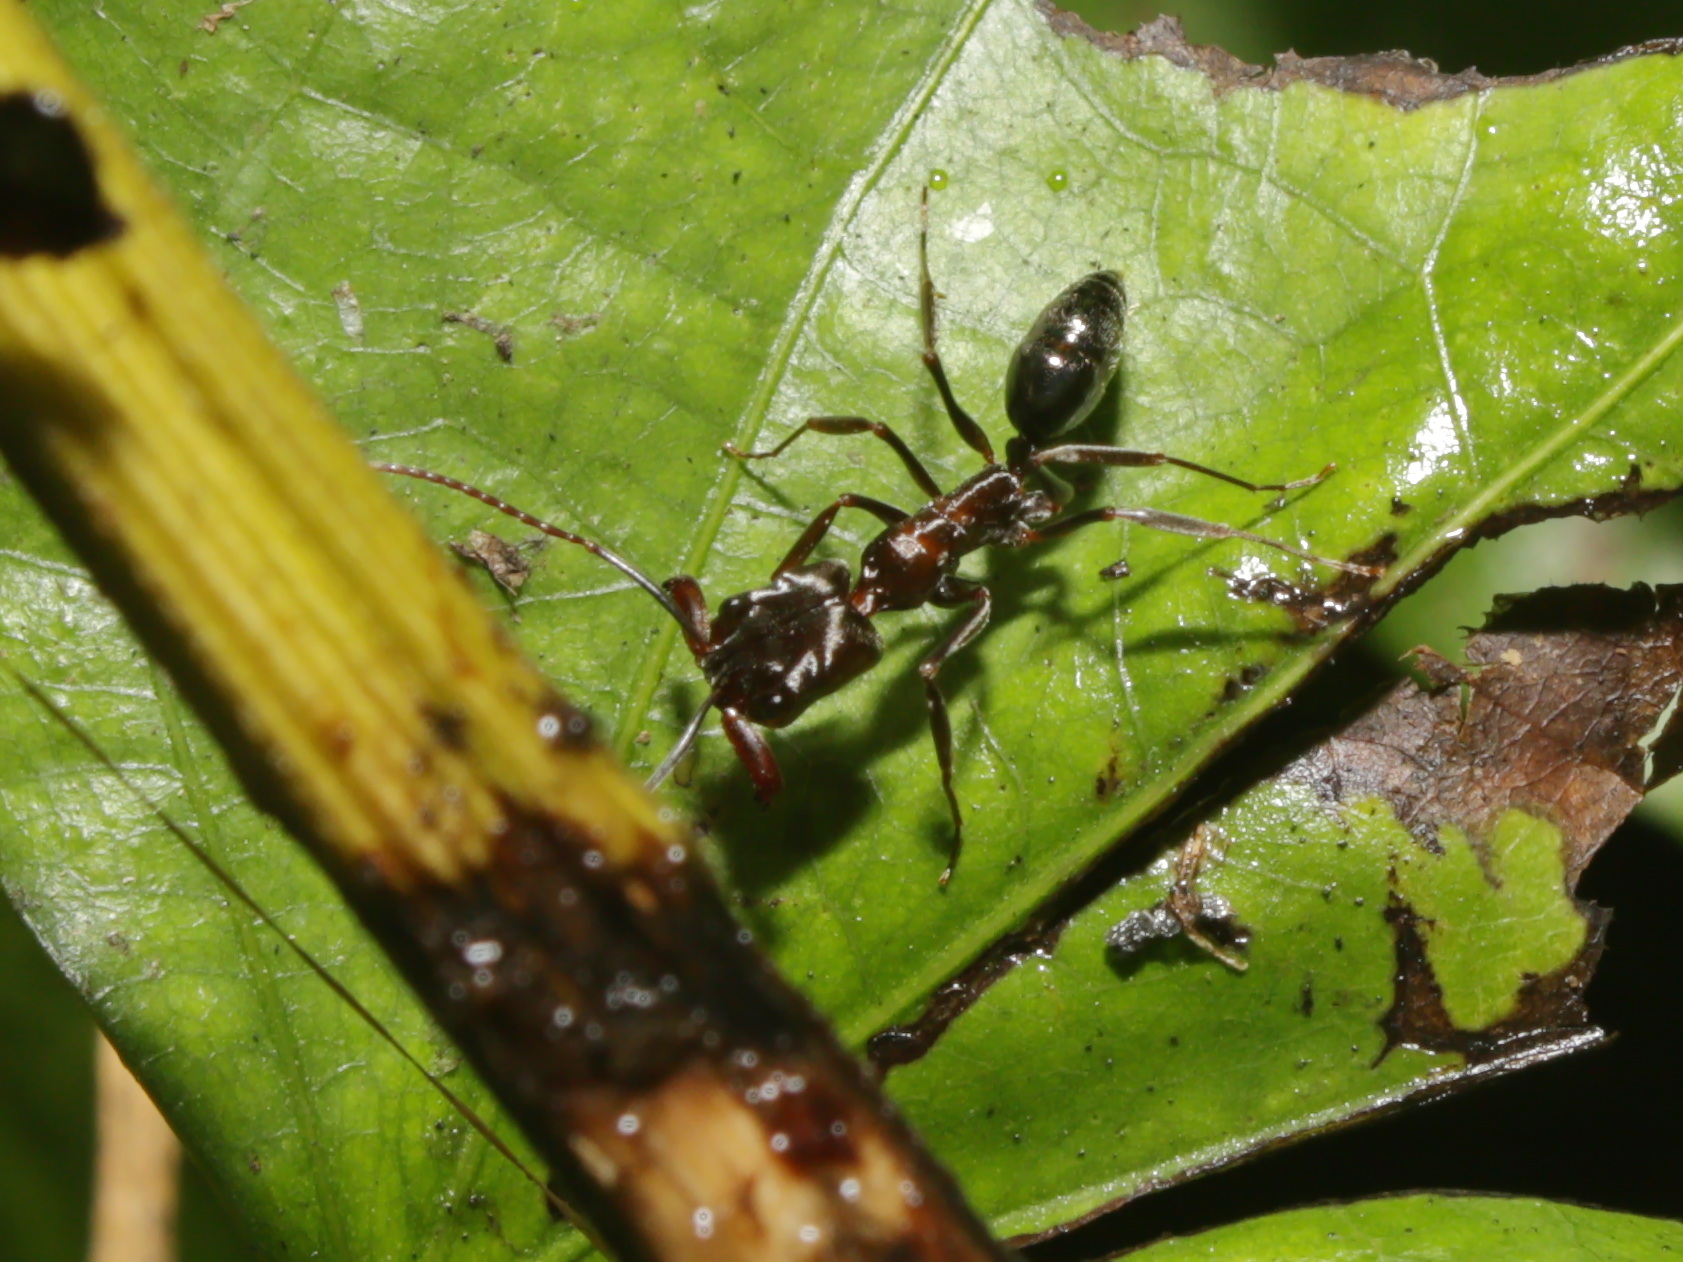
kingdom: Animalia
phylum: Arthropoda
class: Insecta
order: Hymenoptera
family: Formicidae
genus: Odontomachus
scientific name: Odontomachus simillimus
